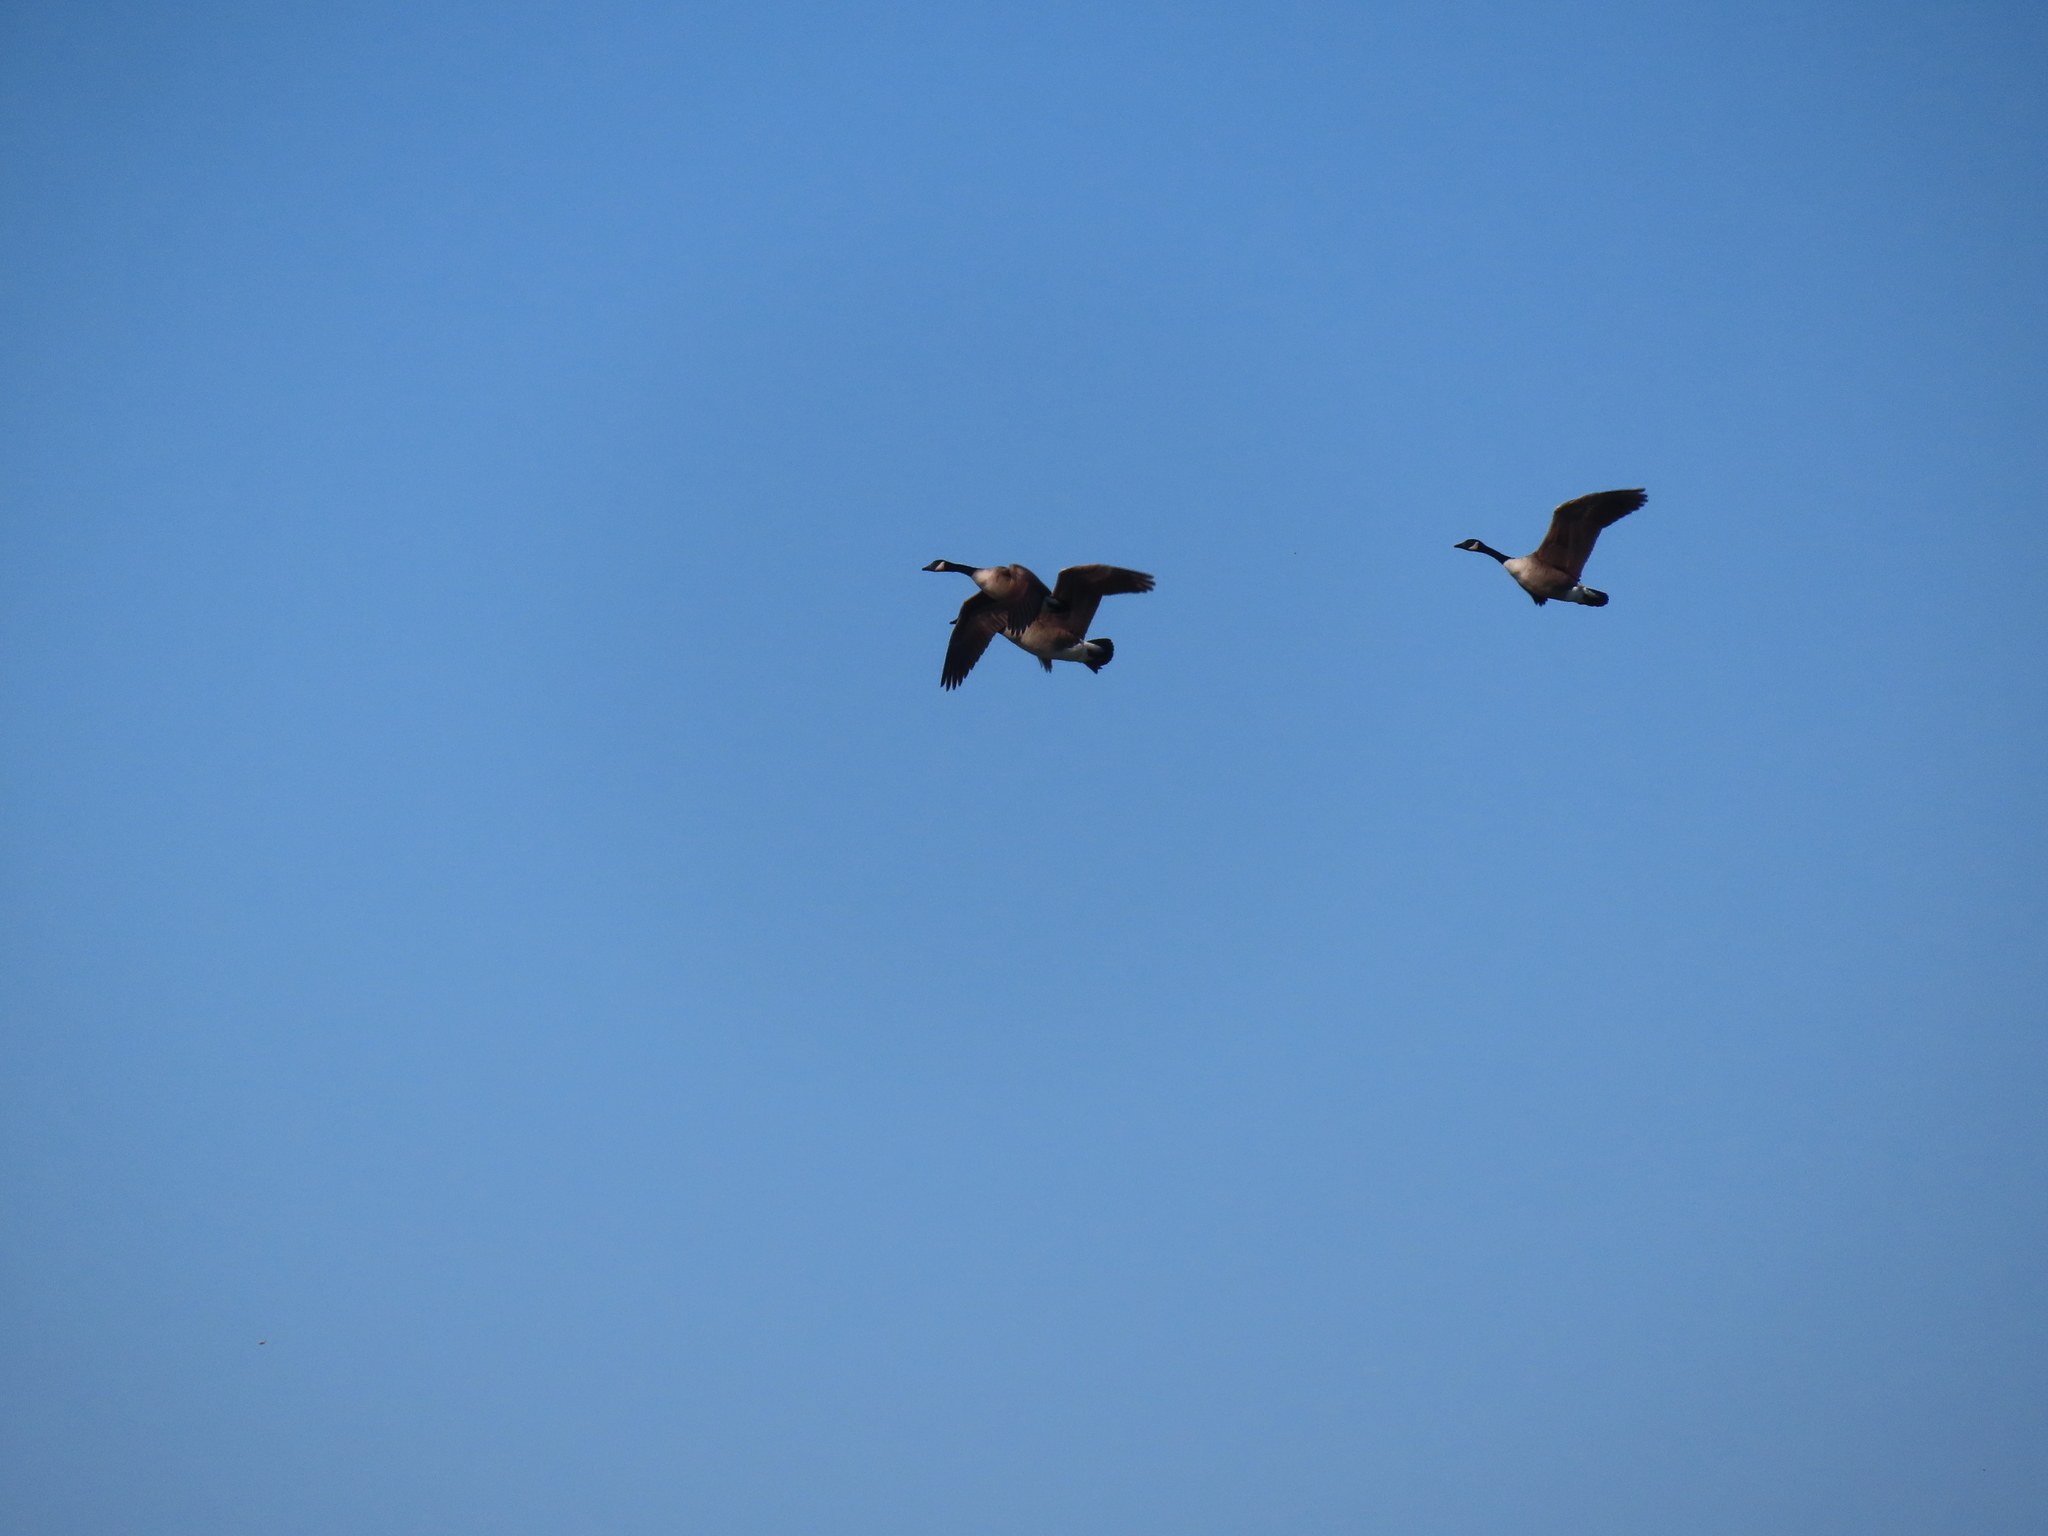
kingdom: Animalia
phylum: Chordata
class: Aves
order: Anseriformes
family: Anatidae
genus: Branta
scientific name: Branta canadensis
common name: Canada goose
